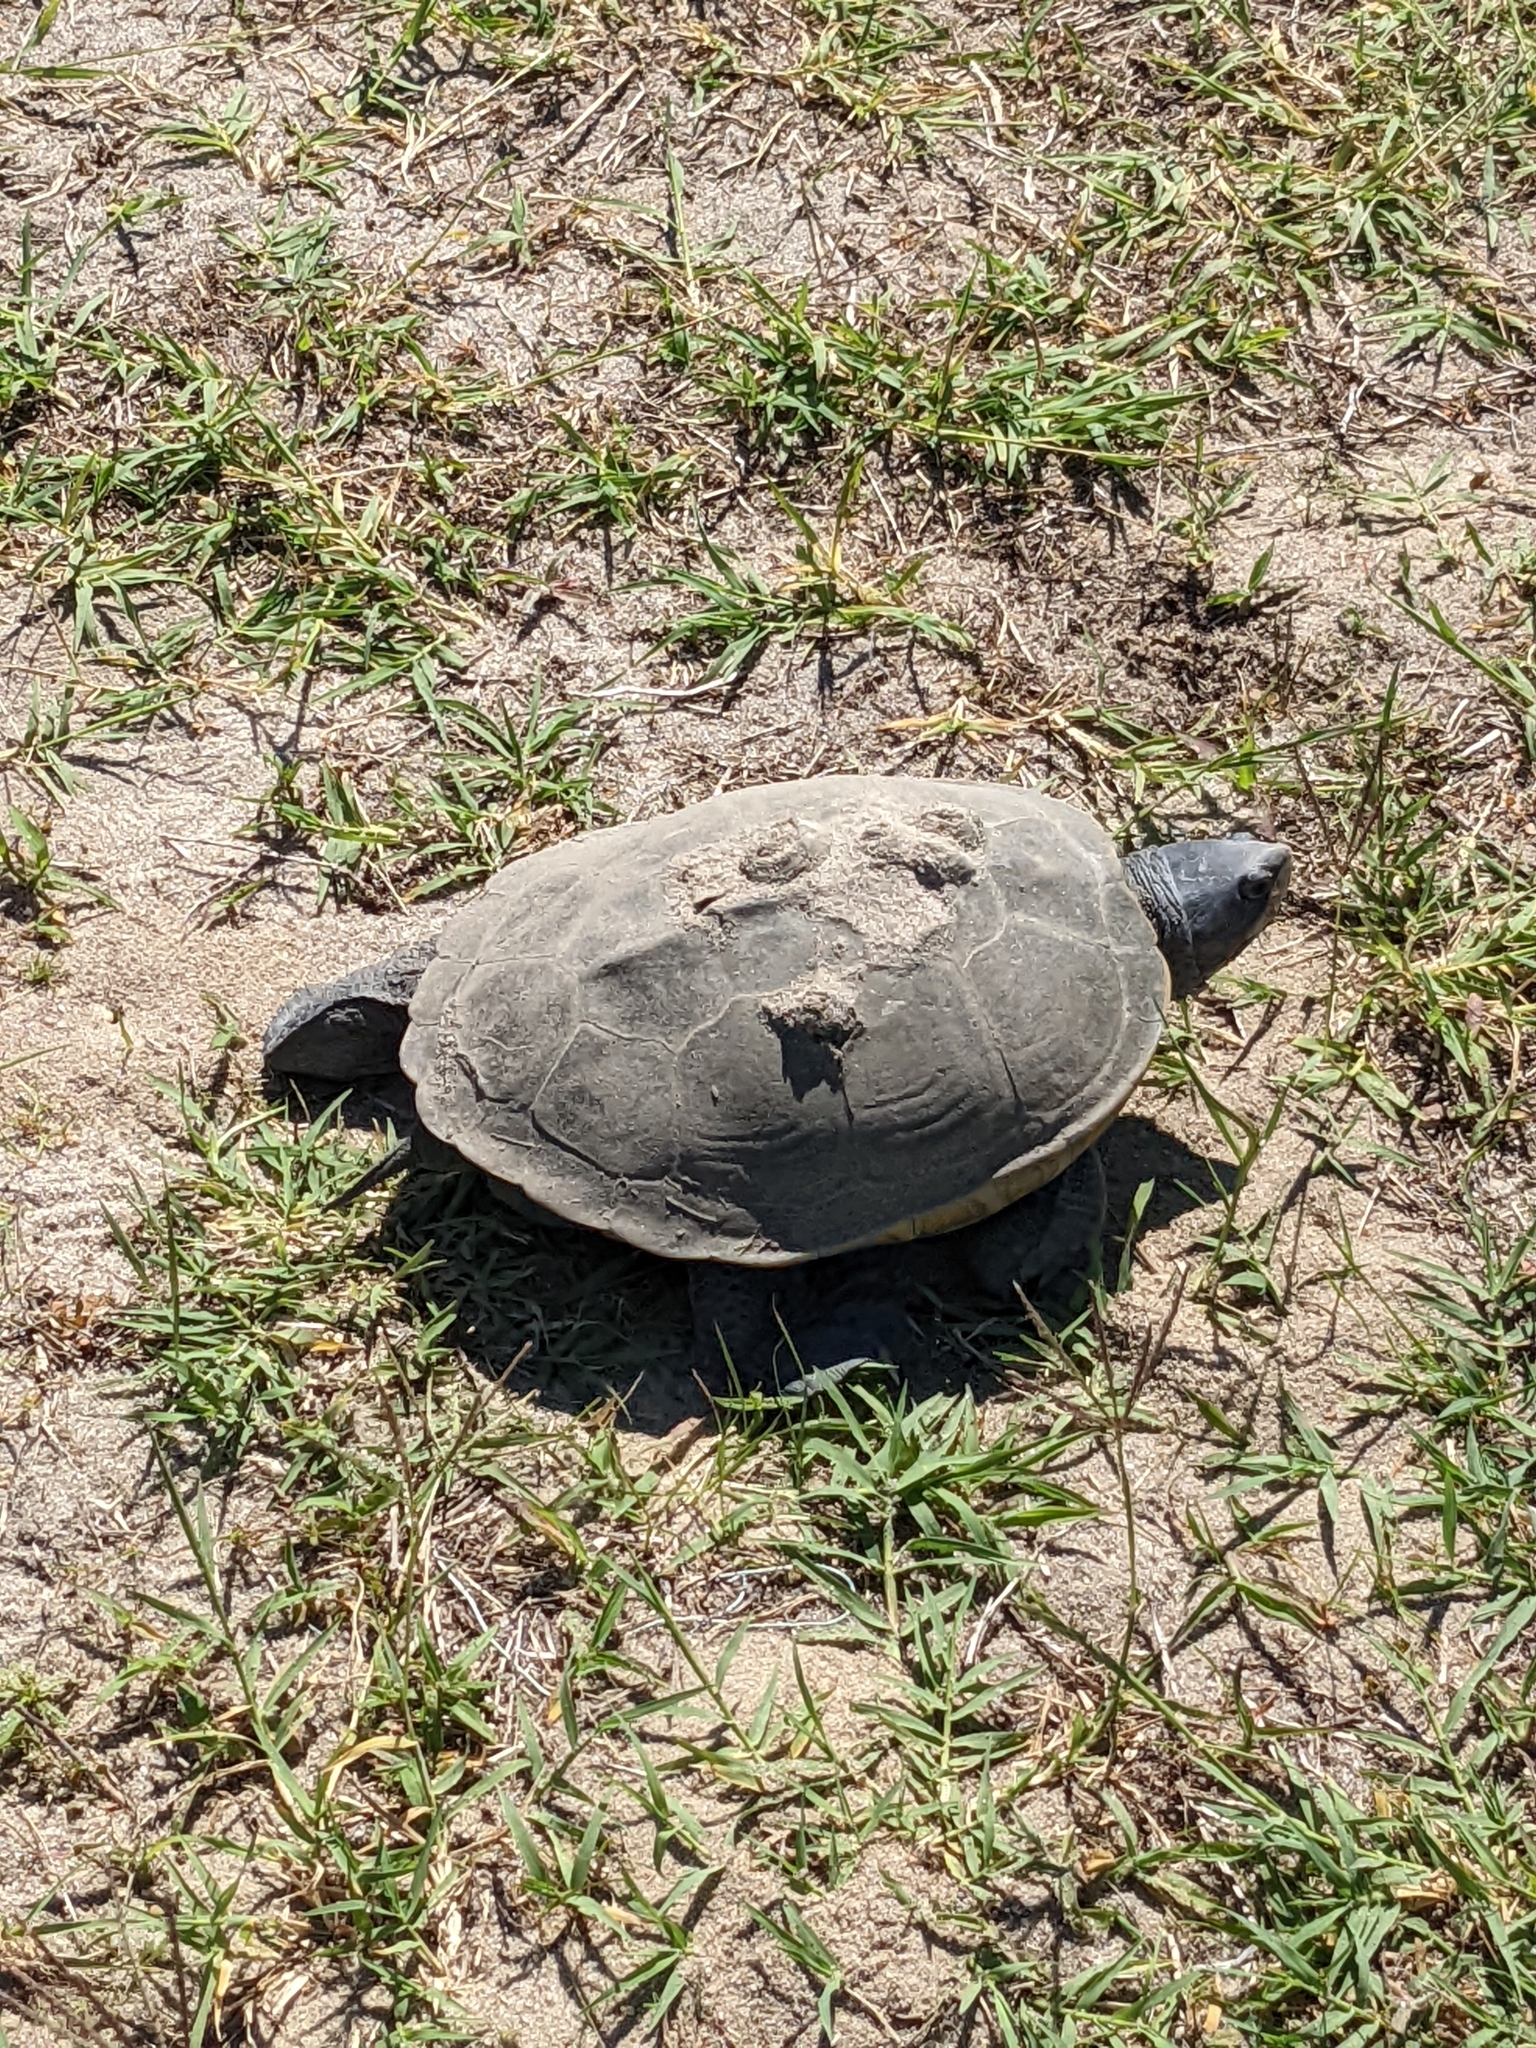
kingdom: Animalia
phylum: Chordata
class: Testudines
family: Emydidae
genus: Malaclemys
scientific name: Malaclemys terrapin
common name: Diamondback terrapin
